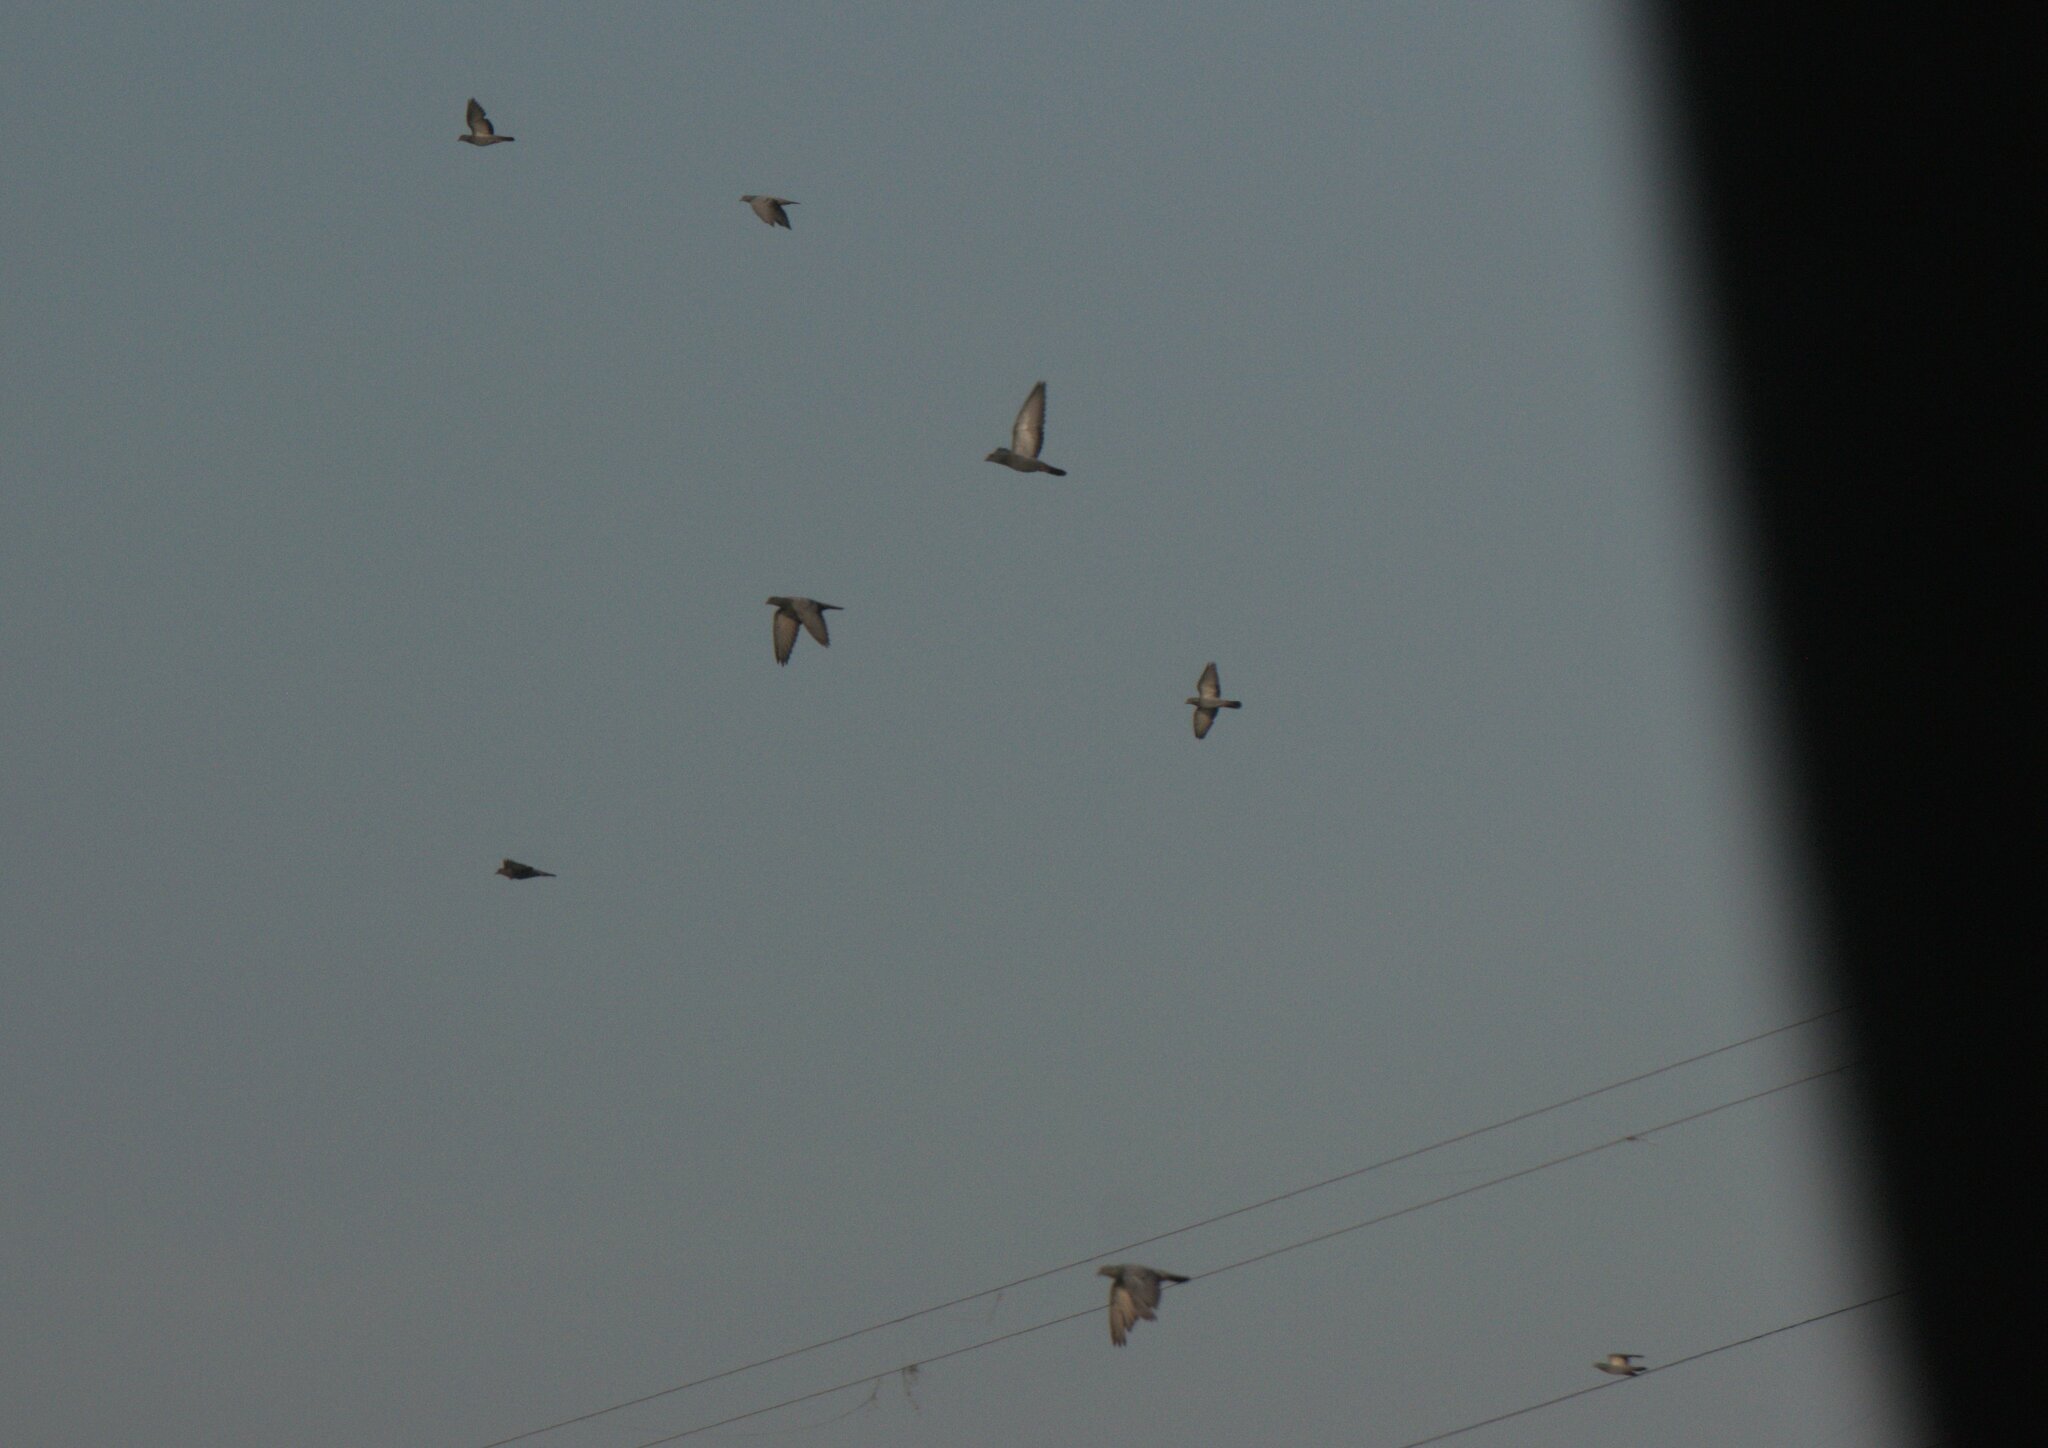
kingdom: Animalia
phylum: Chordata
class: Aves
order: Columbiformes
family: Columbidae
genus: Columba
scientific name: Columba livia
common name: Rock pigeon
